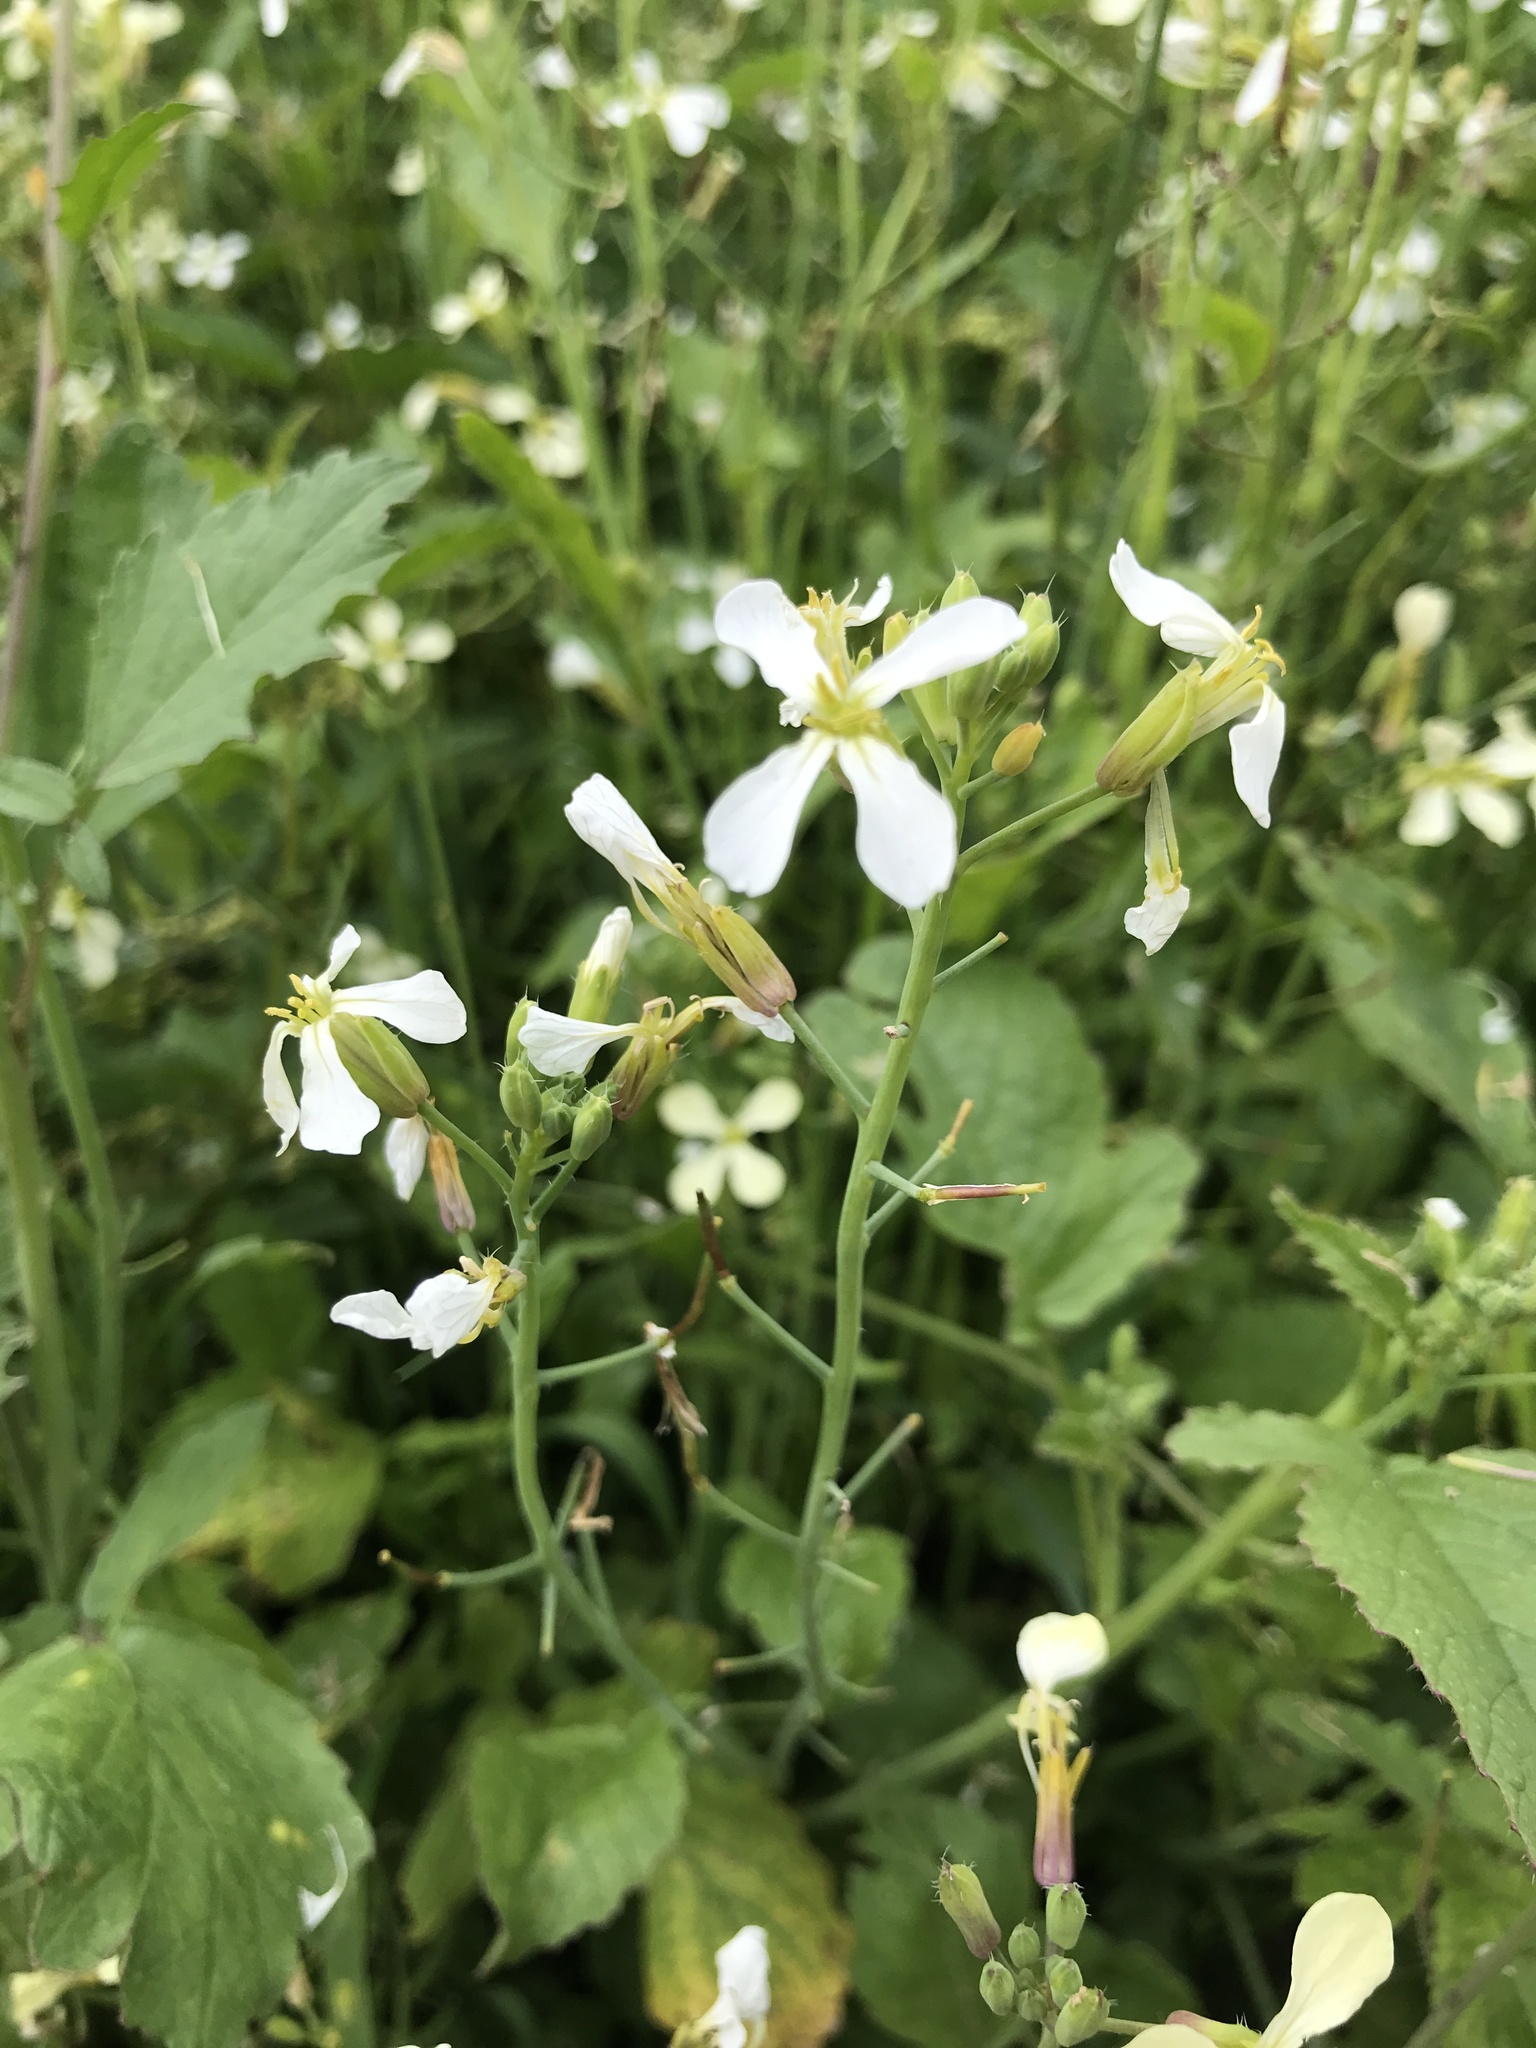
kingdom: Plantae
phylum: Tracheophyta
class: Magnoliopsida
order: Brassicales
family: Brassicaceae
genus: Raphanus
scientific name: Raphanus raphanistrum
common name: Wild radish
